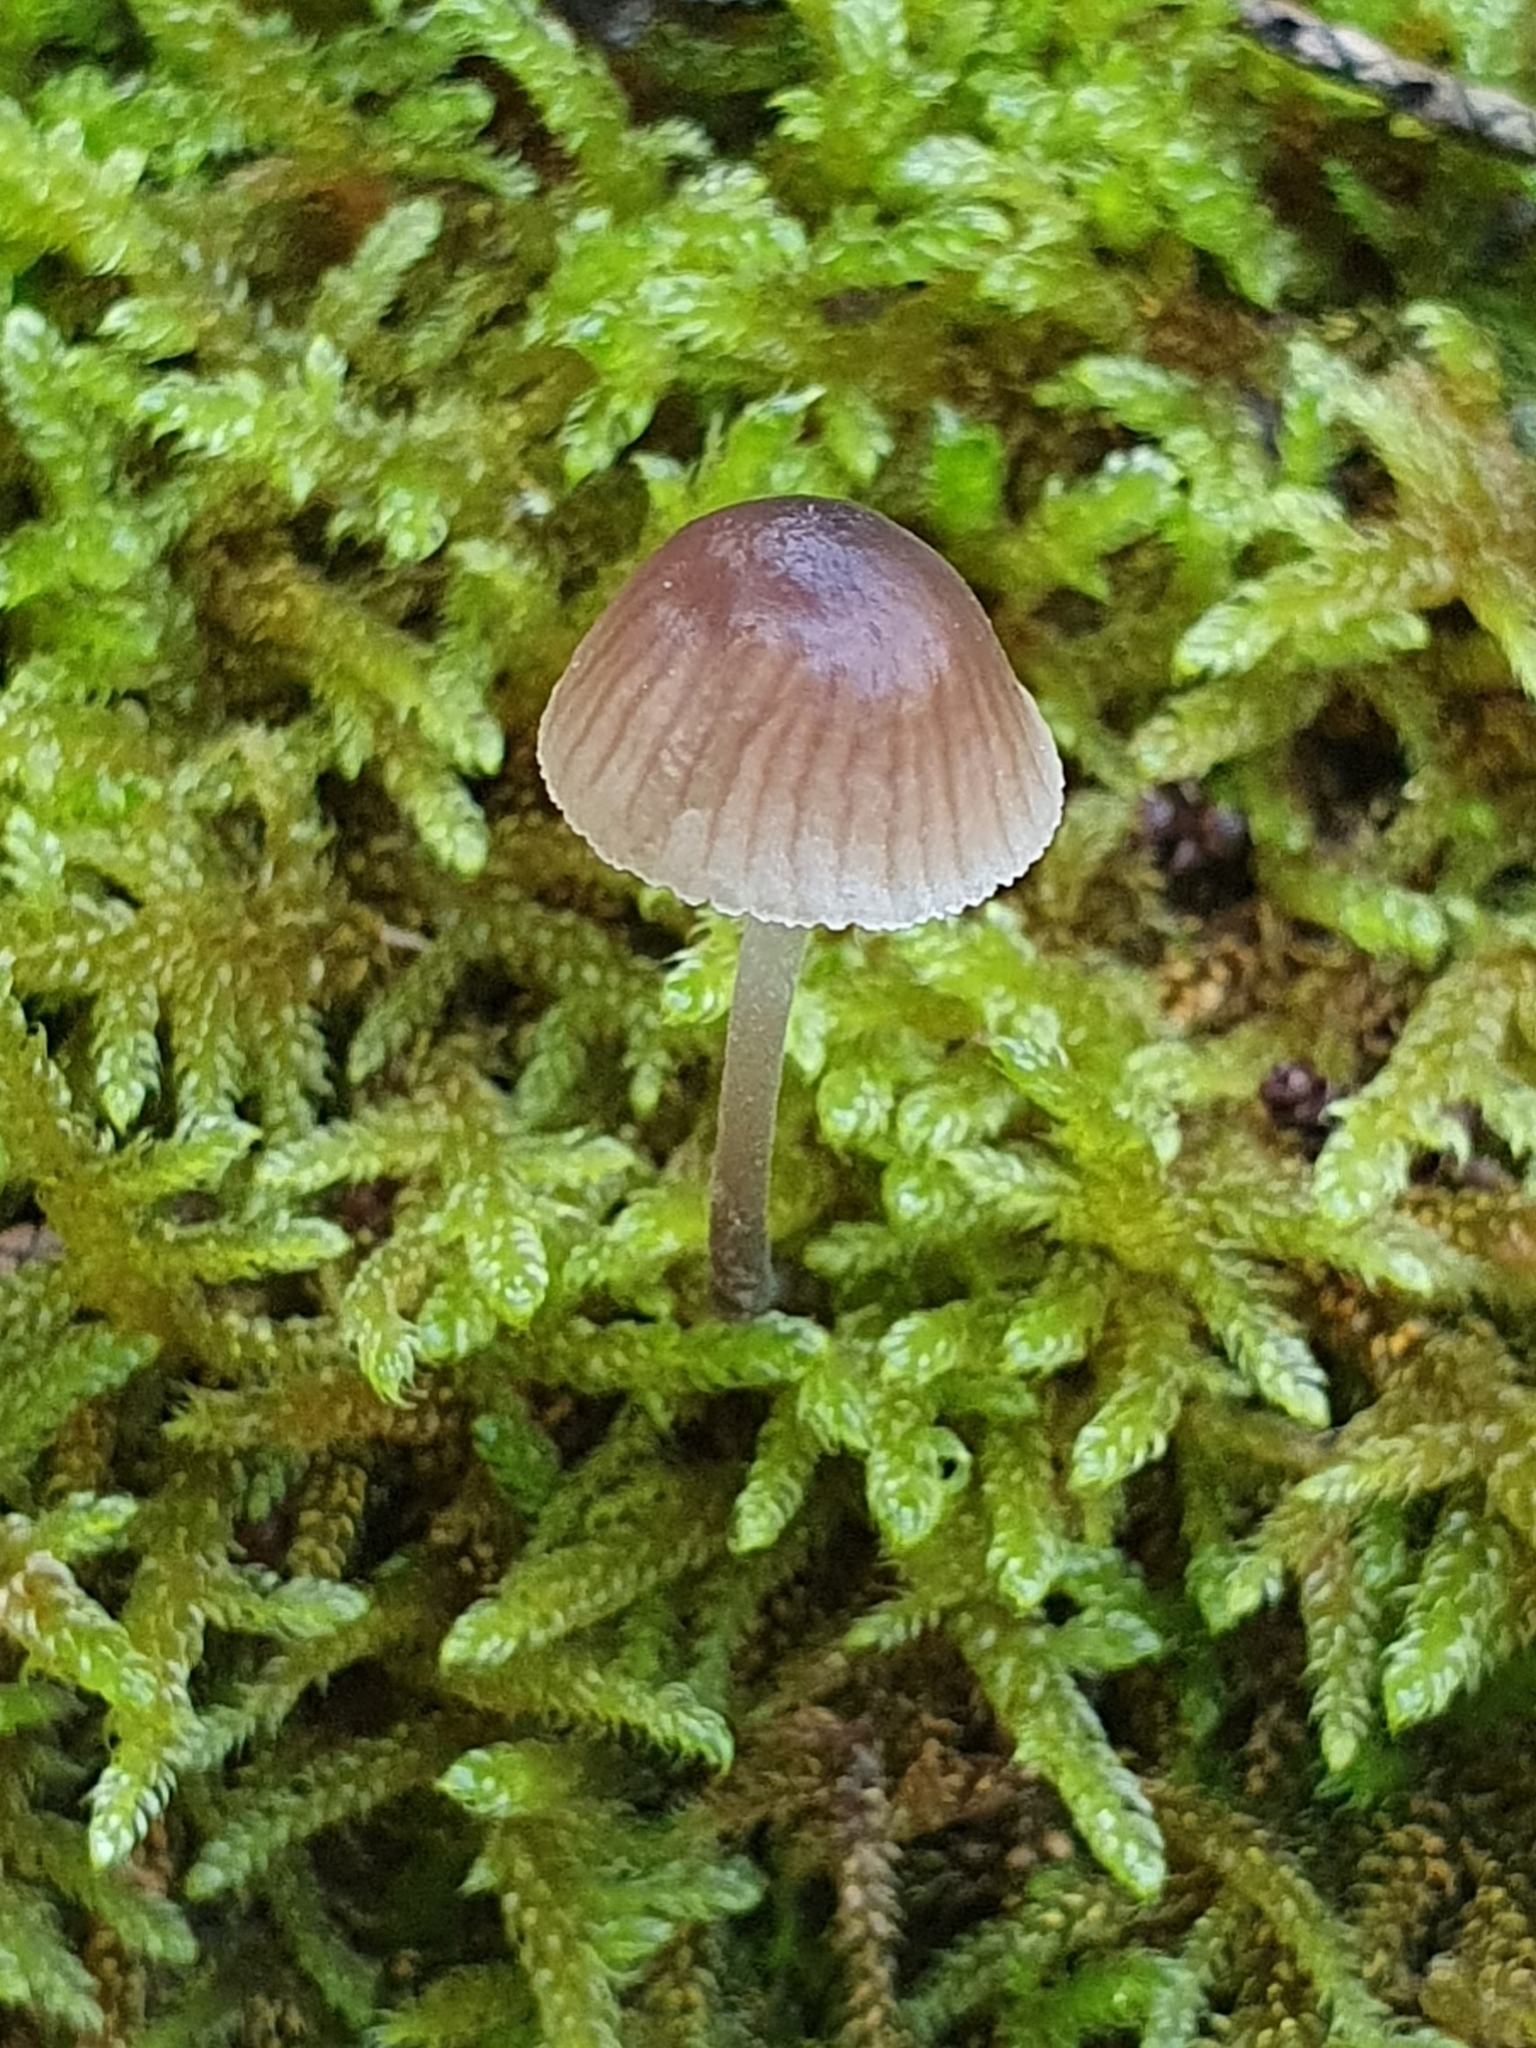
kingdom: Fungi
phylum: Basidiomycota
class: Agaricomycetes
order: Agaricales
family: Tricholomataceae
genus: Mycenella
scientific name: Mycenella bryophila
